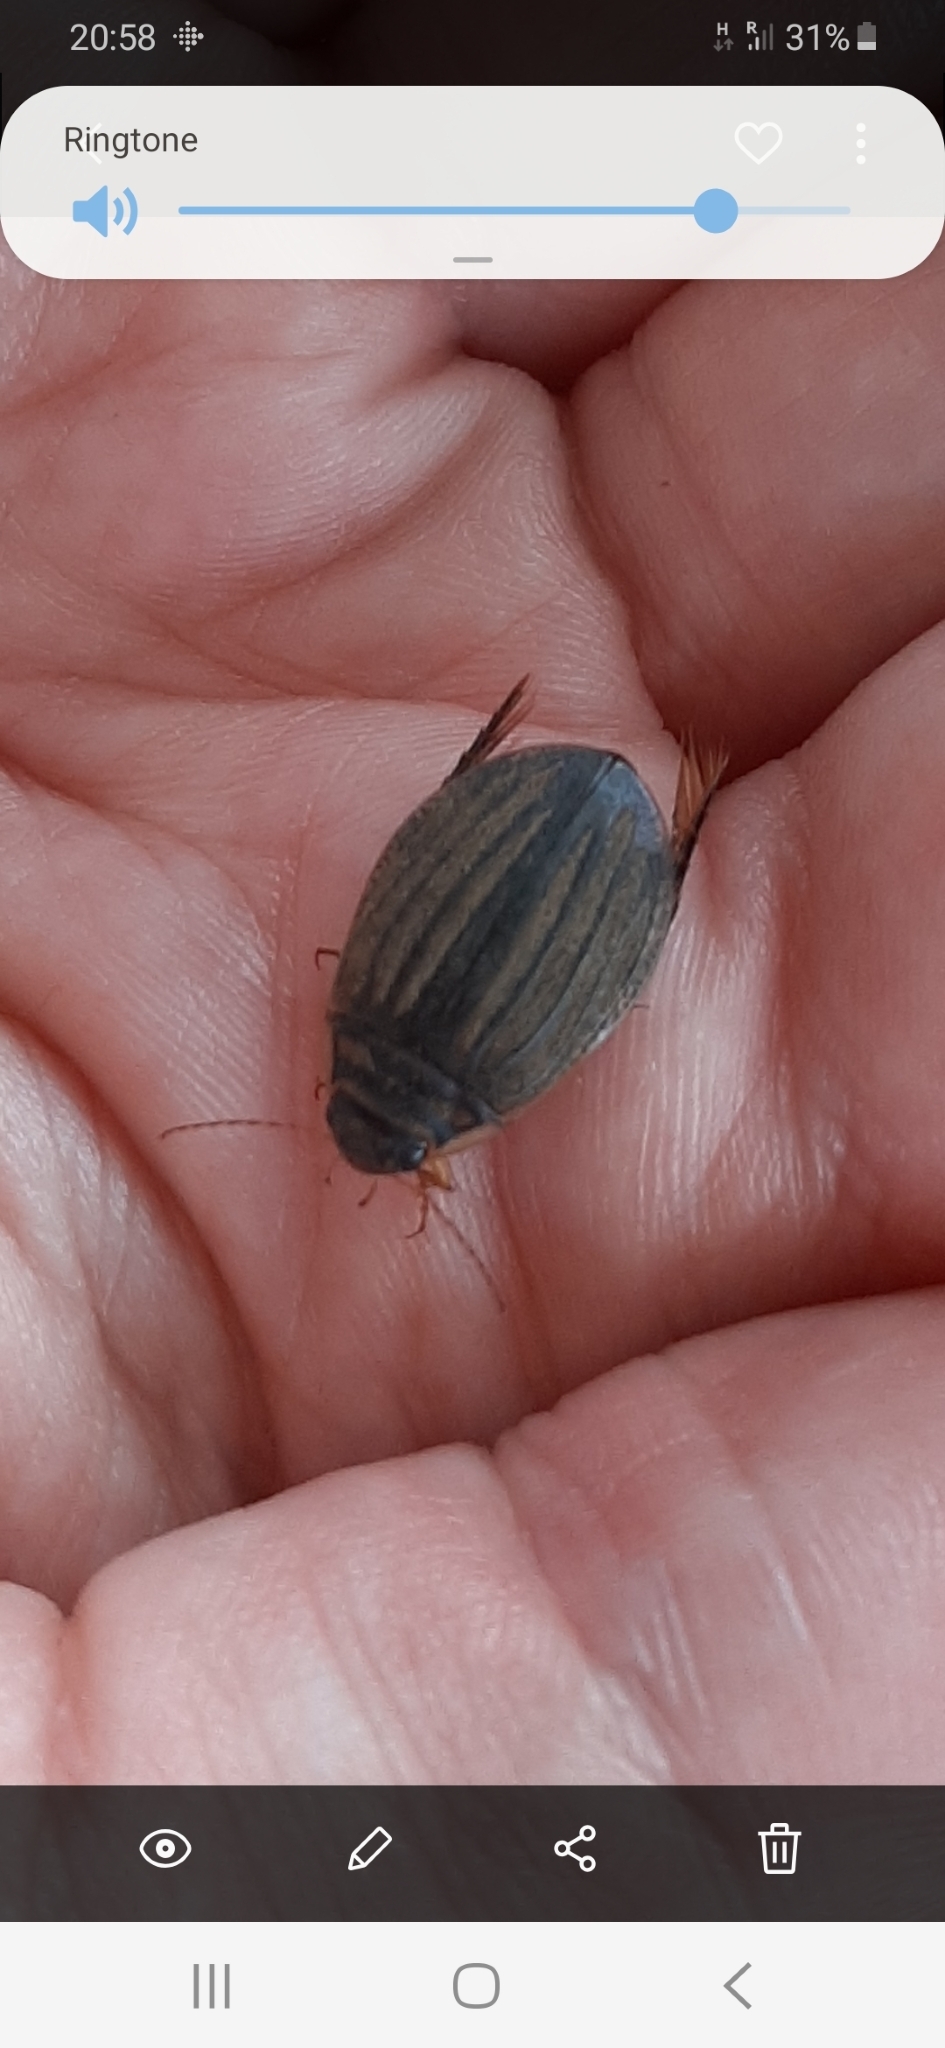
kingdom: Animalia
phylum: Arthropoda
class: Insecta
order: Coleoptera
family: Dytiscidae
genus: Acilius
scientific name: Acilius sulcatus
